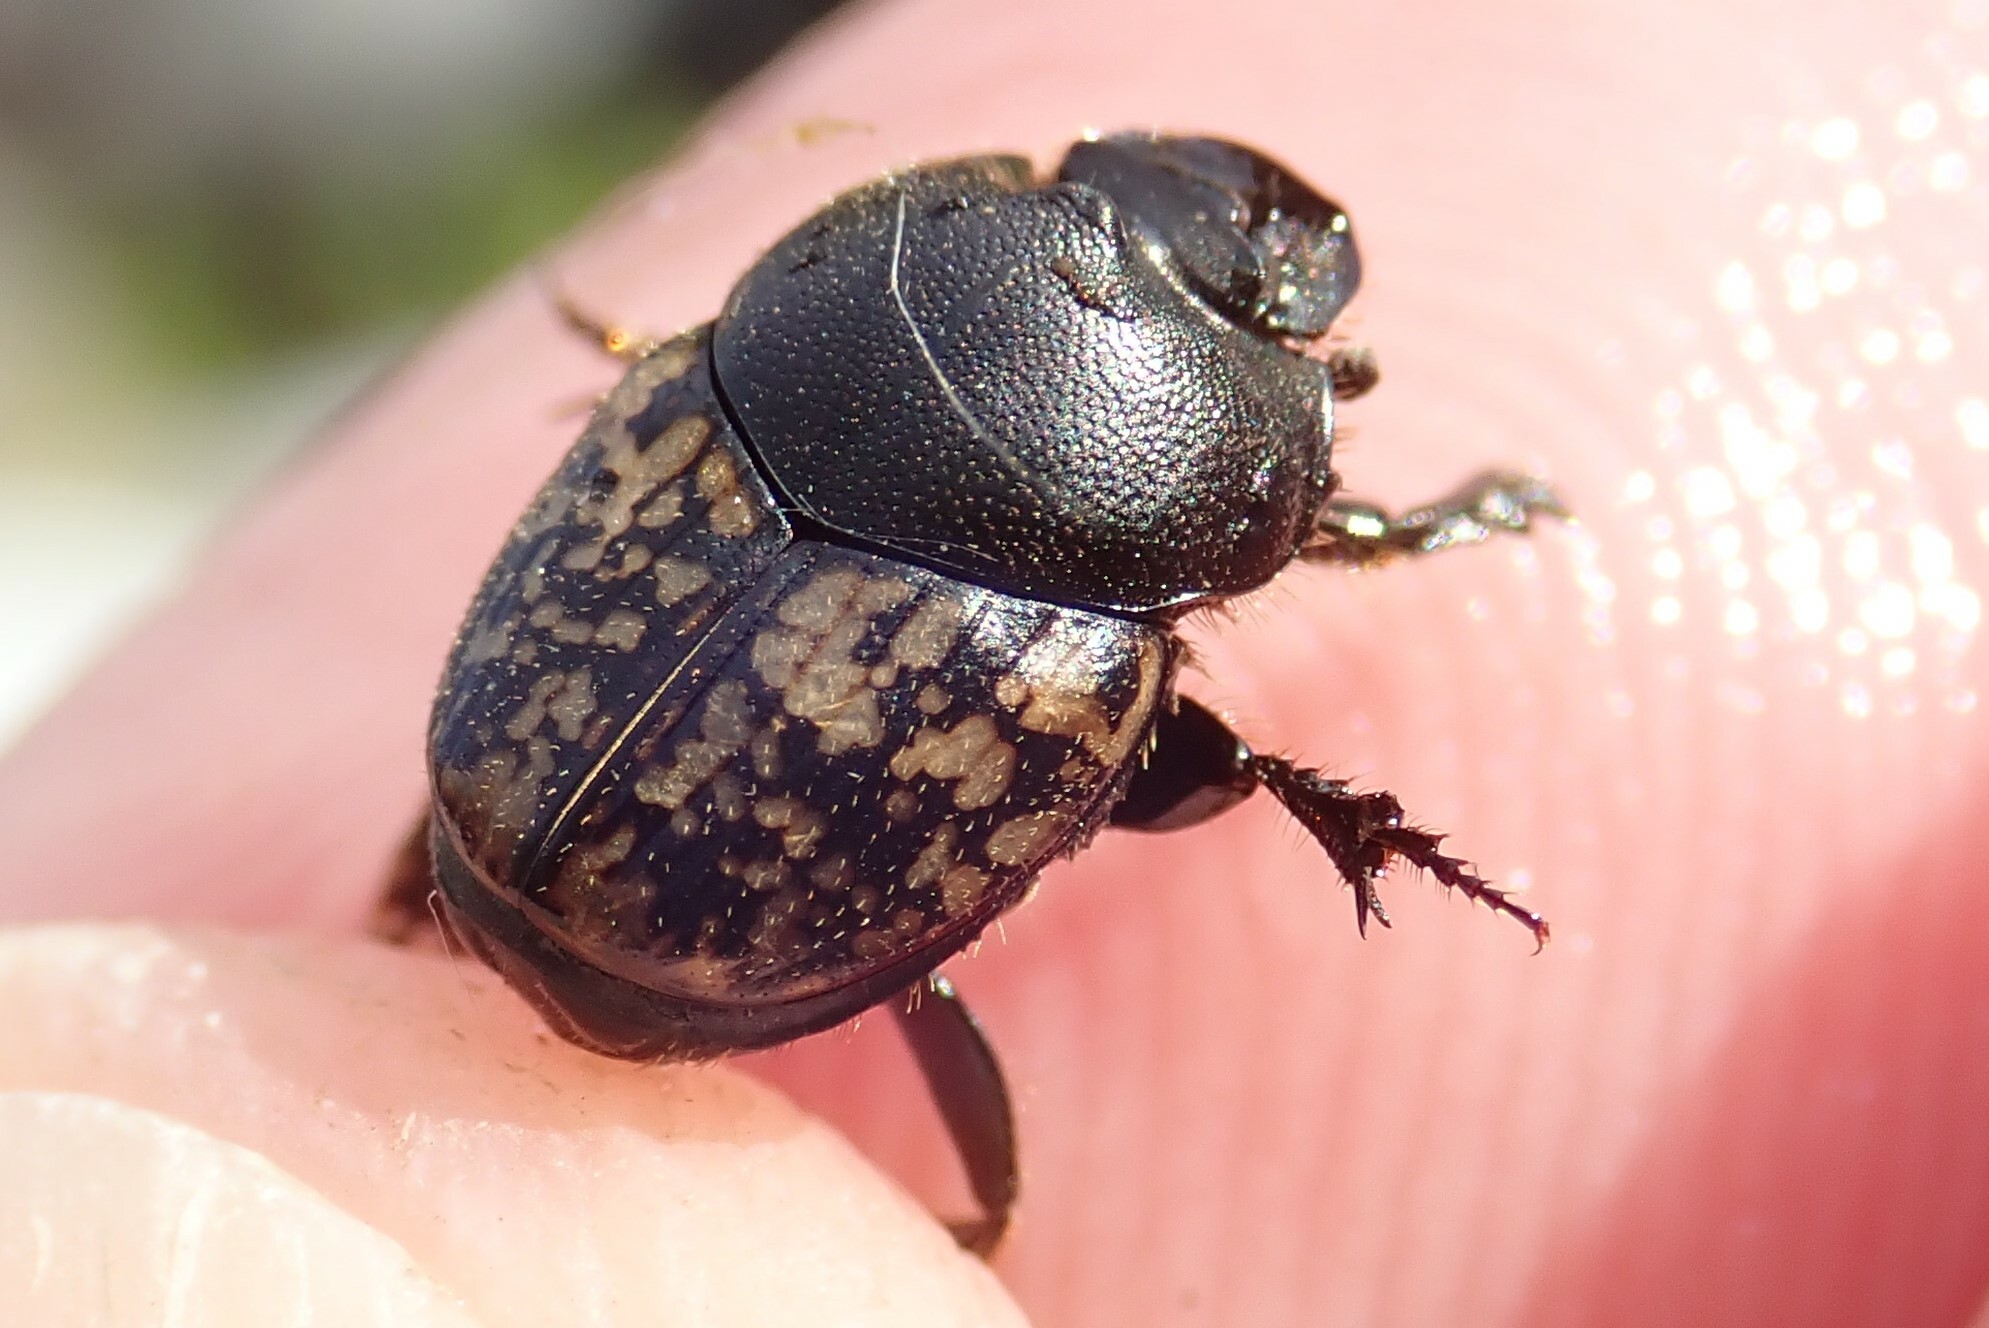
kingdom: Animalia
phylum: Arthropoda
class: Insecta
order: Coleoptera
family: Scarabaeidae
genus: Onthophagus
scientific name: Onthophagus nuchicornis
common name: Mottled dung beetle
